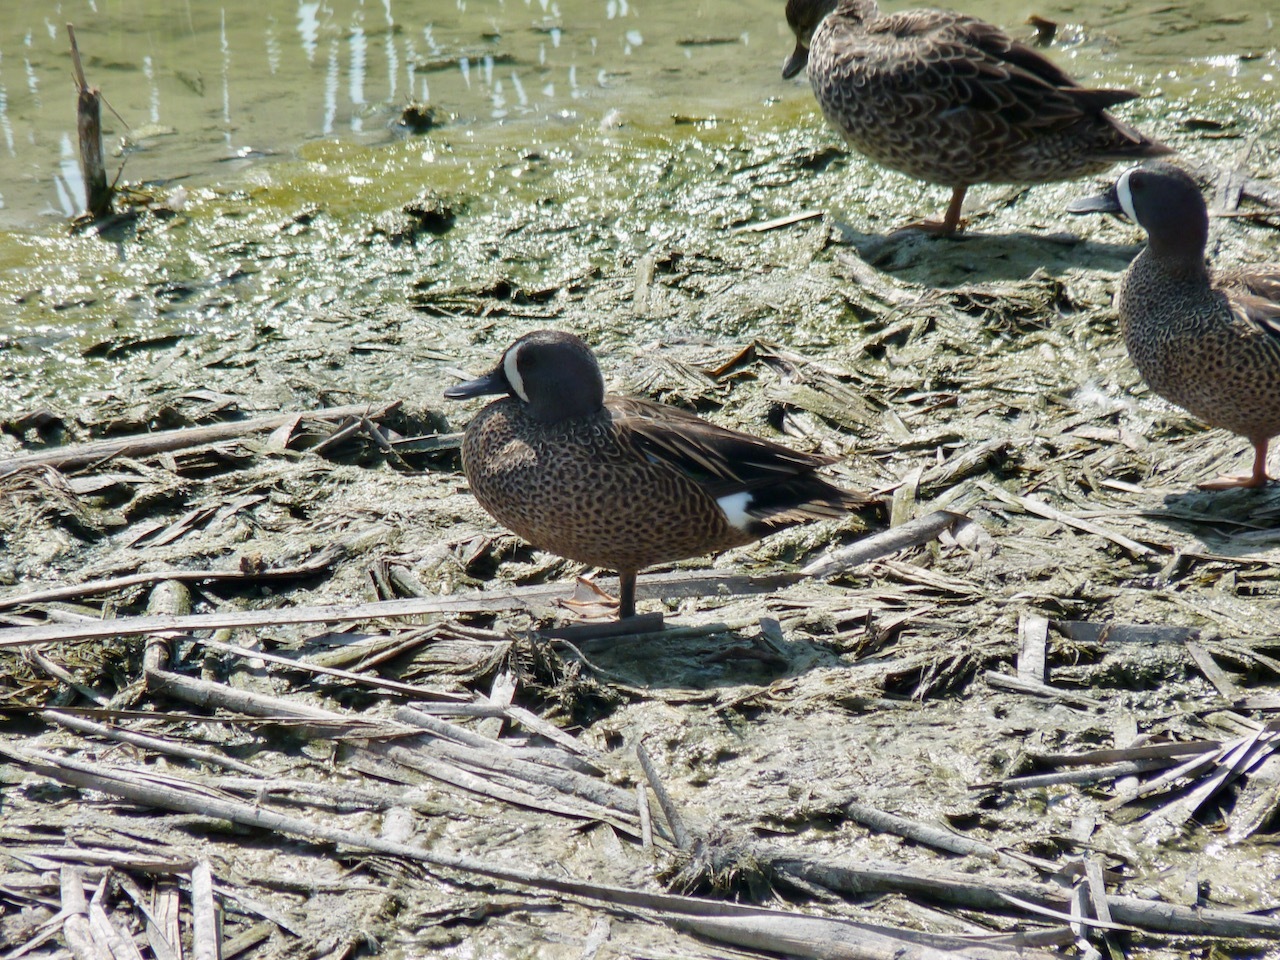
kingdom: Animalia
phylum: Chordata
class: Aves
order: Anseriformes
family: Anatidae
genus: Spatula
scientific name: Spatula discors
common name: Blue-winged teal
